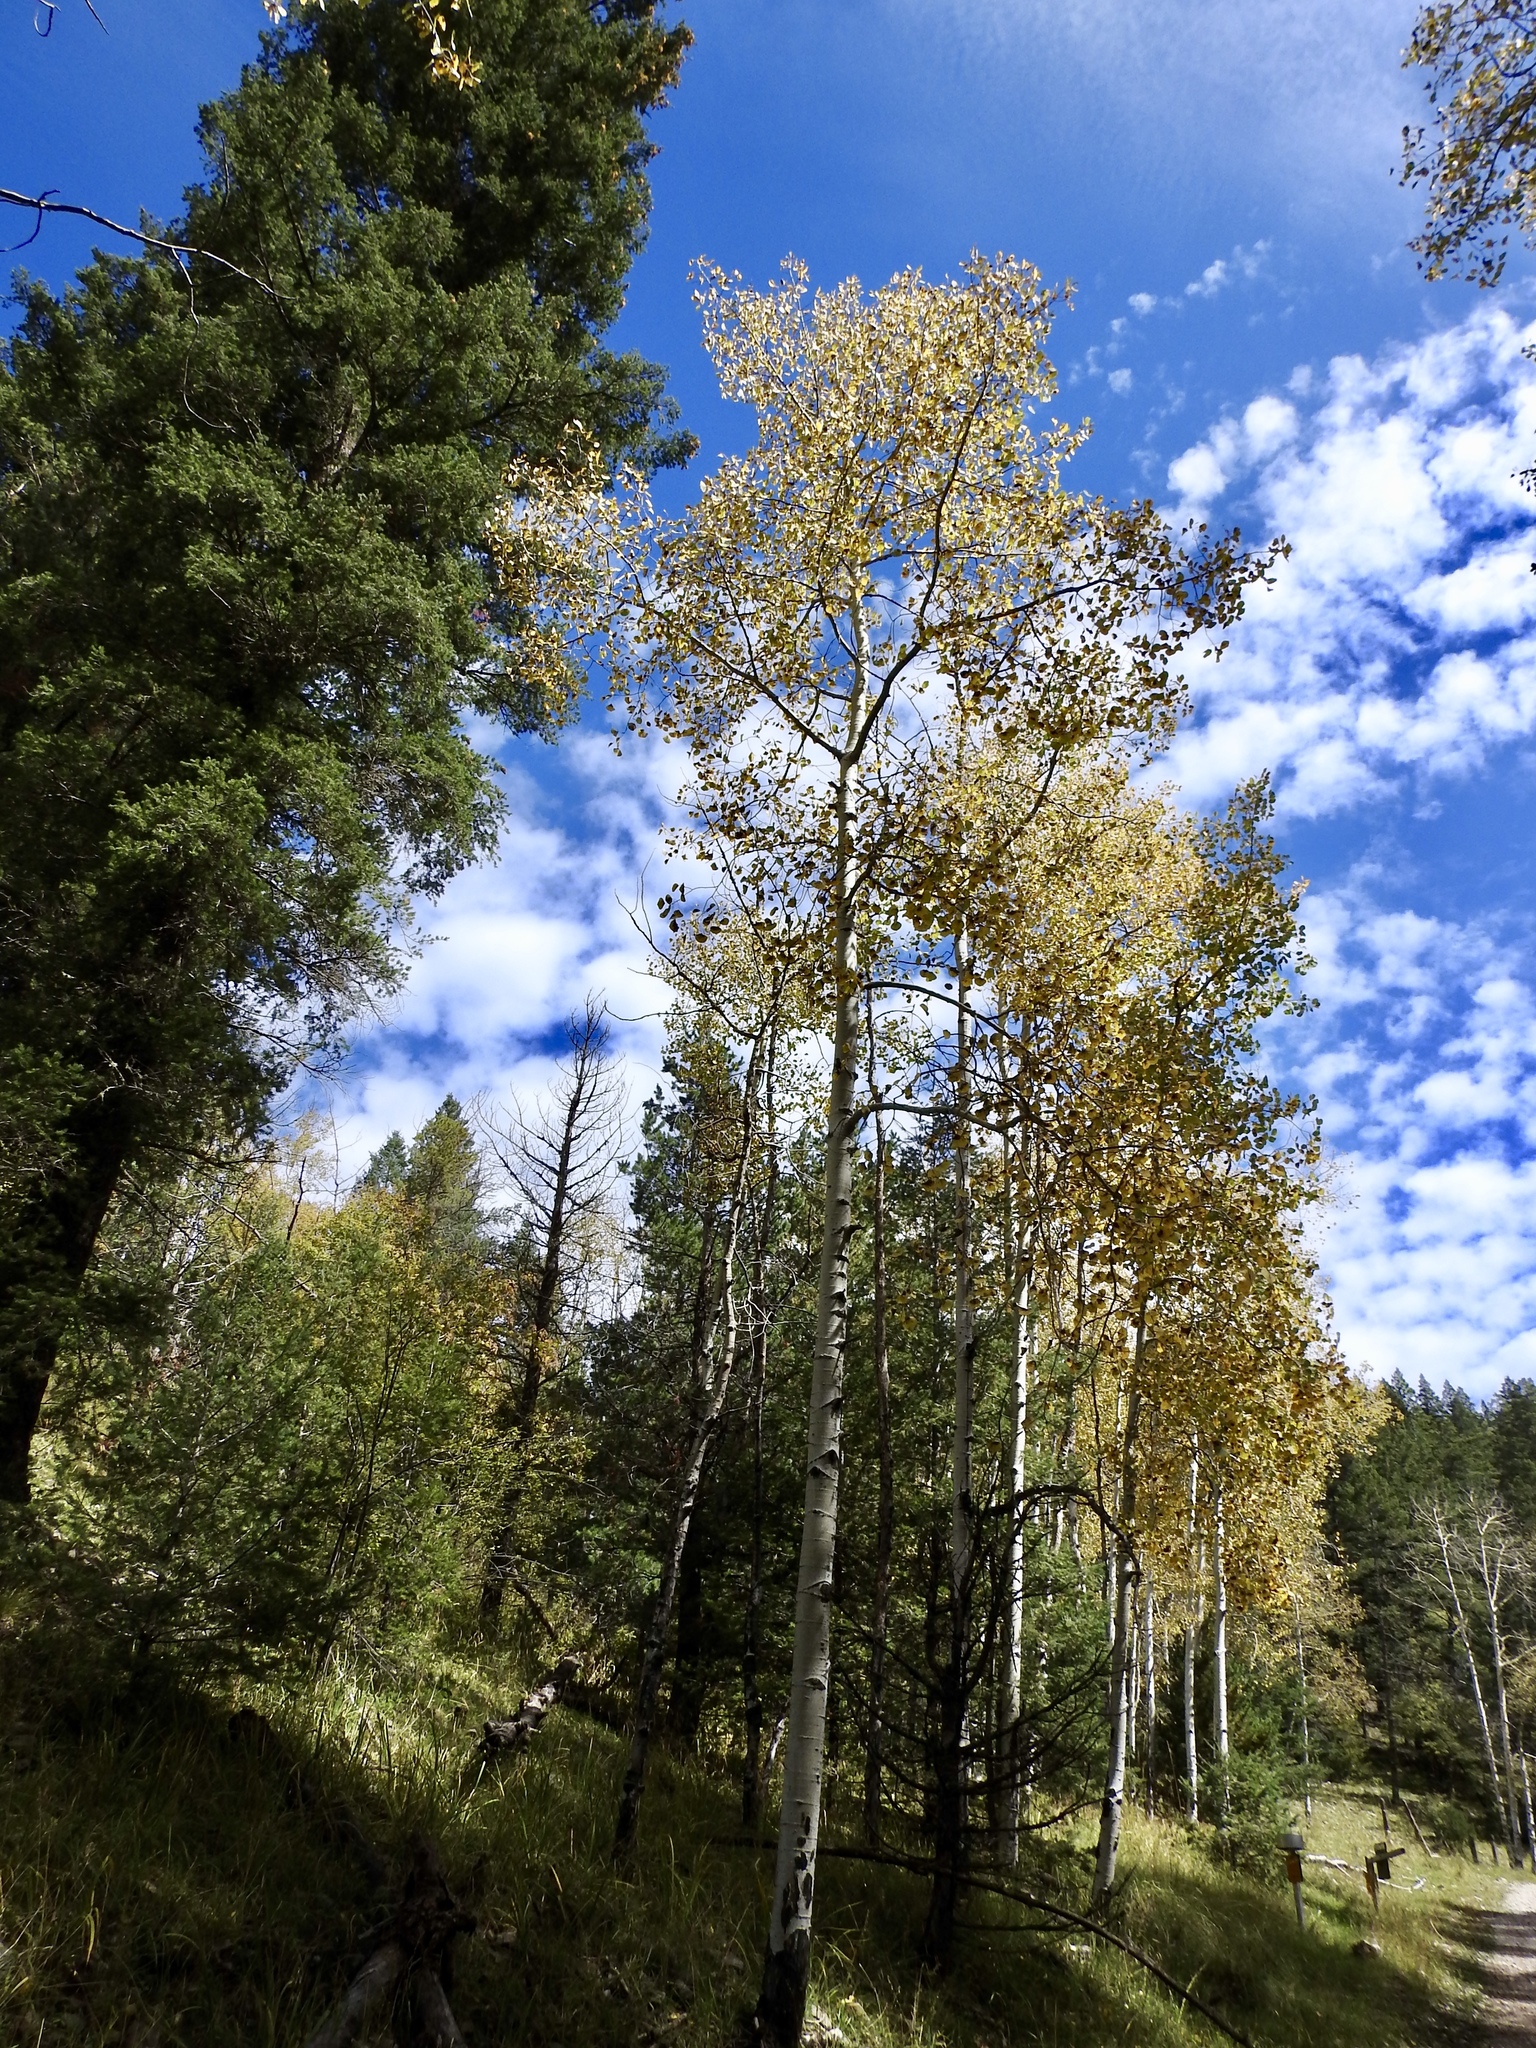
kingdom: Plantae
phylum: Tracheophyta
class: Magnoliopsida
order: Malpighiales
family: Salicaceae
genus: Populus
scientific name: Populus tremuloides
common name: Quaking aspen
